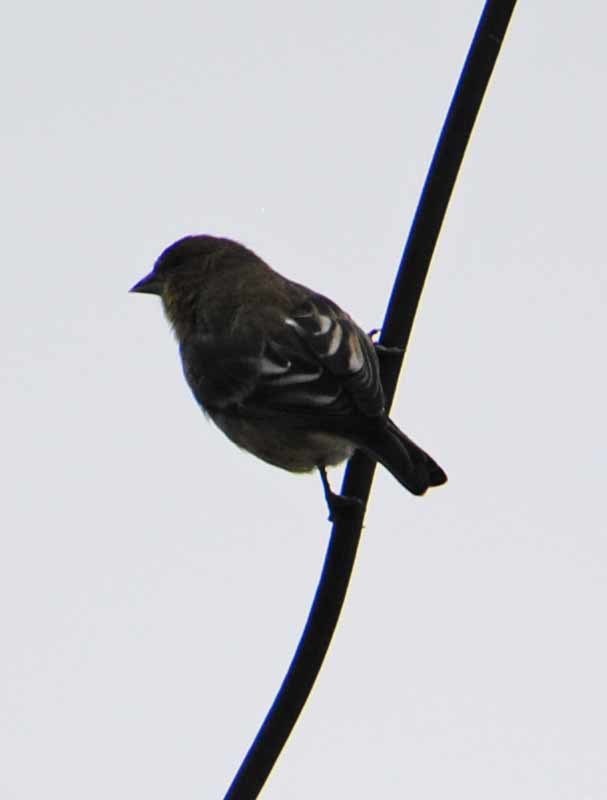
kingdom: Animalia
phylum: Chordata
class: Aves
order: Passeriformes
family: Fringillidae
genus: Spinus
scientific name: Spinus psaltria
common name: Lesser goldfinch
